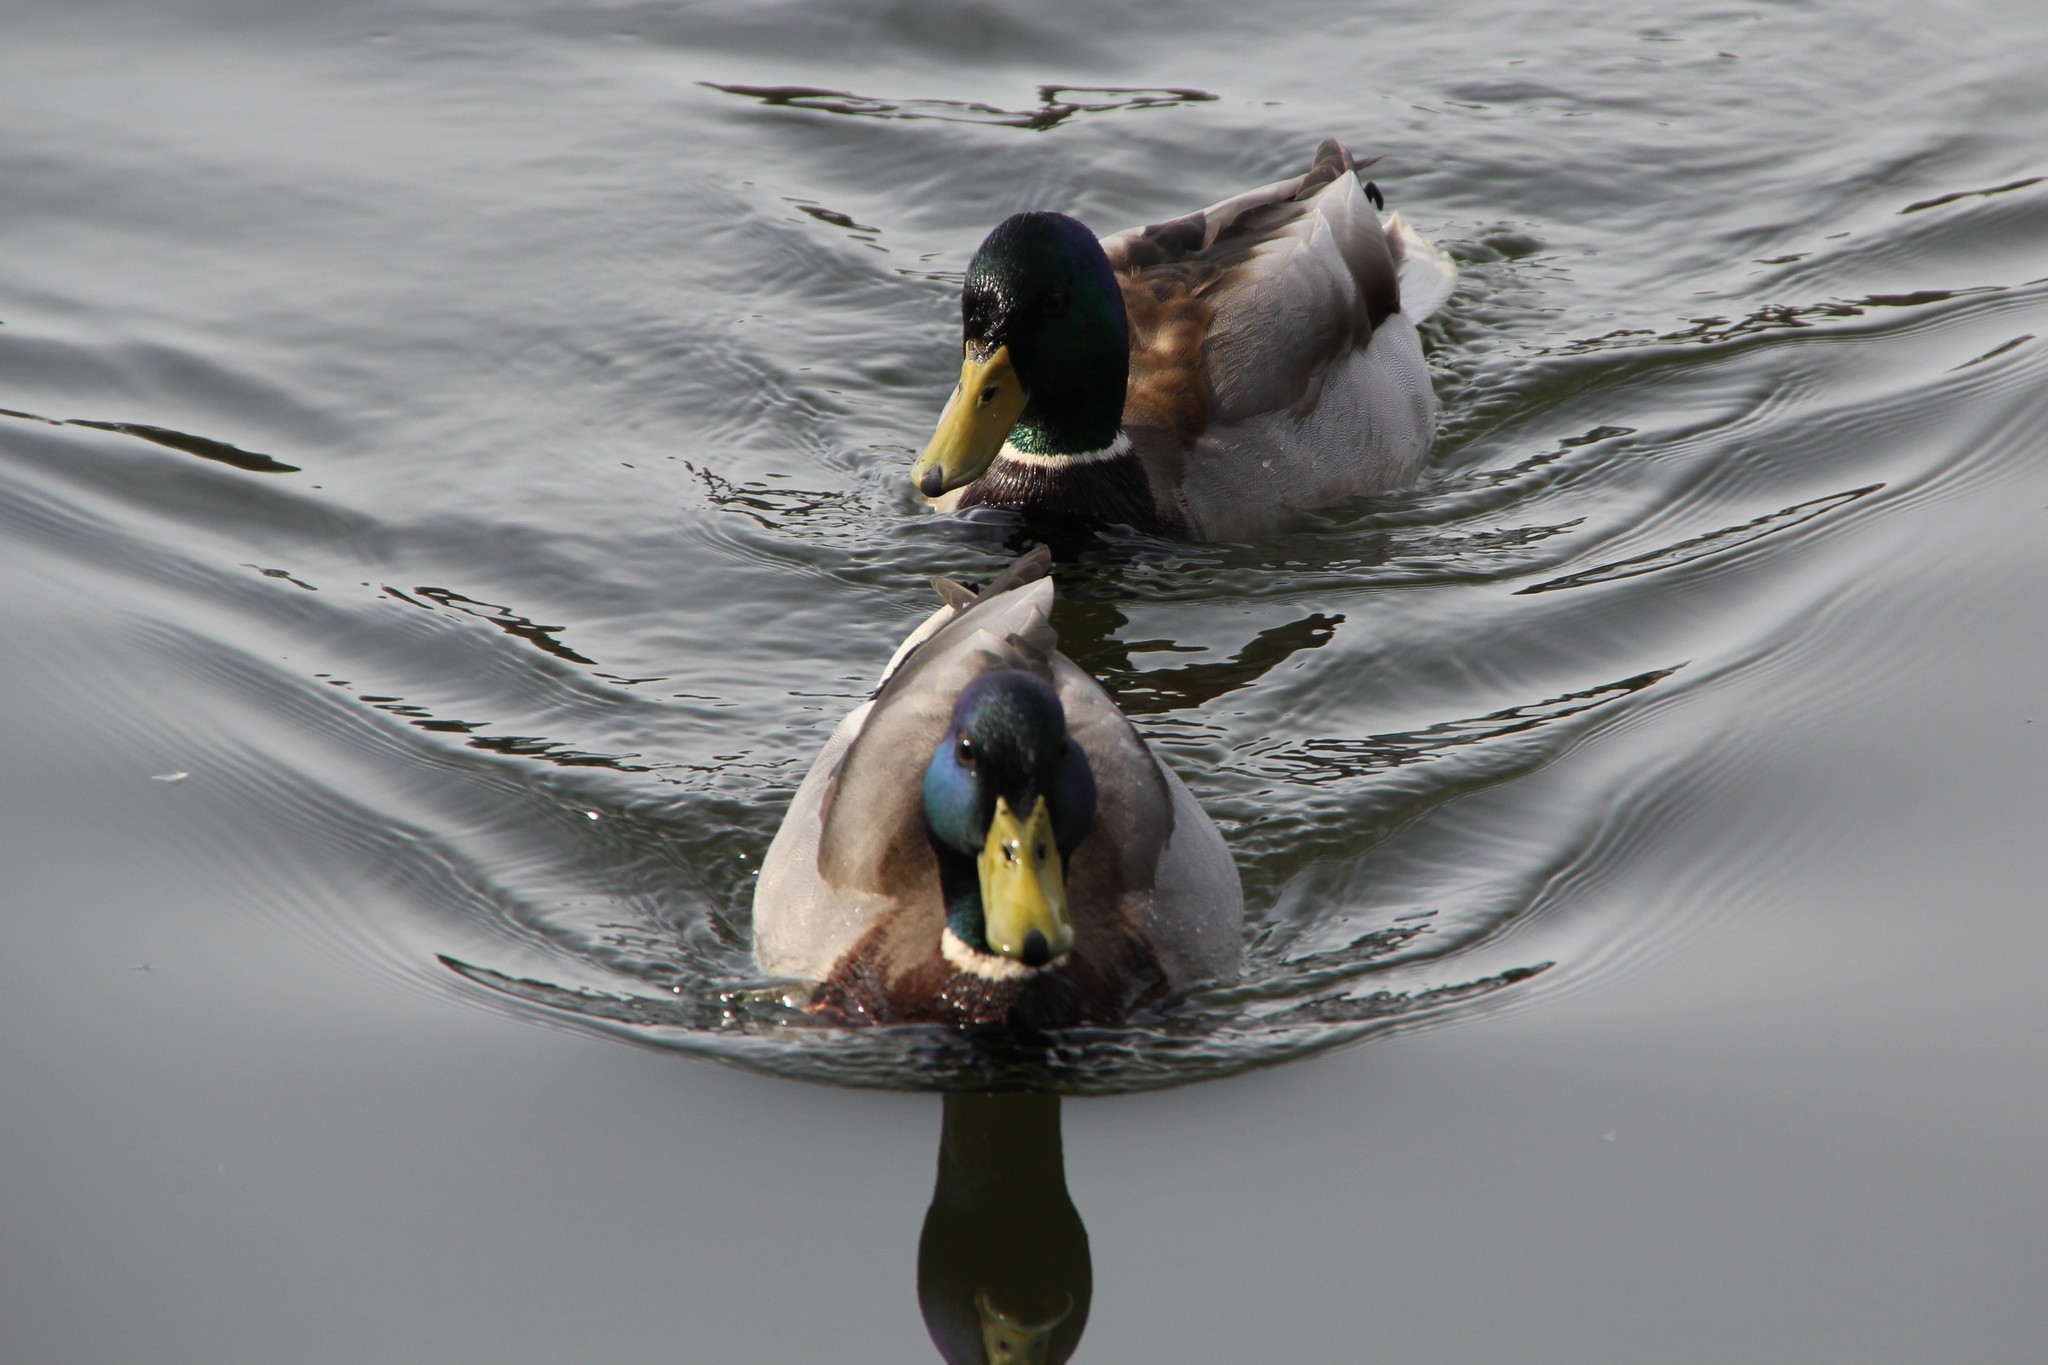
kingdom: Animalia
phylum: Chordata
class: Aves
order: Anseriformes
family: Anatidae
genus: Anas
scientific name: Anas platyrhynchos
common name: Mallard
